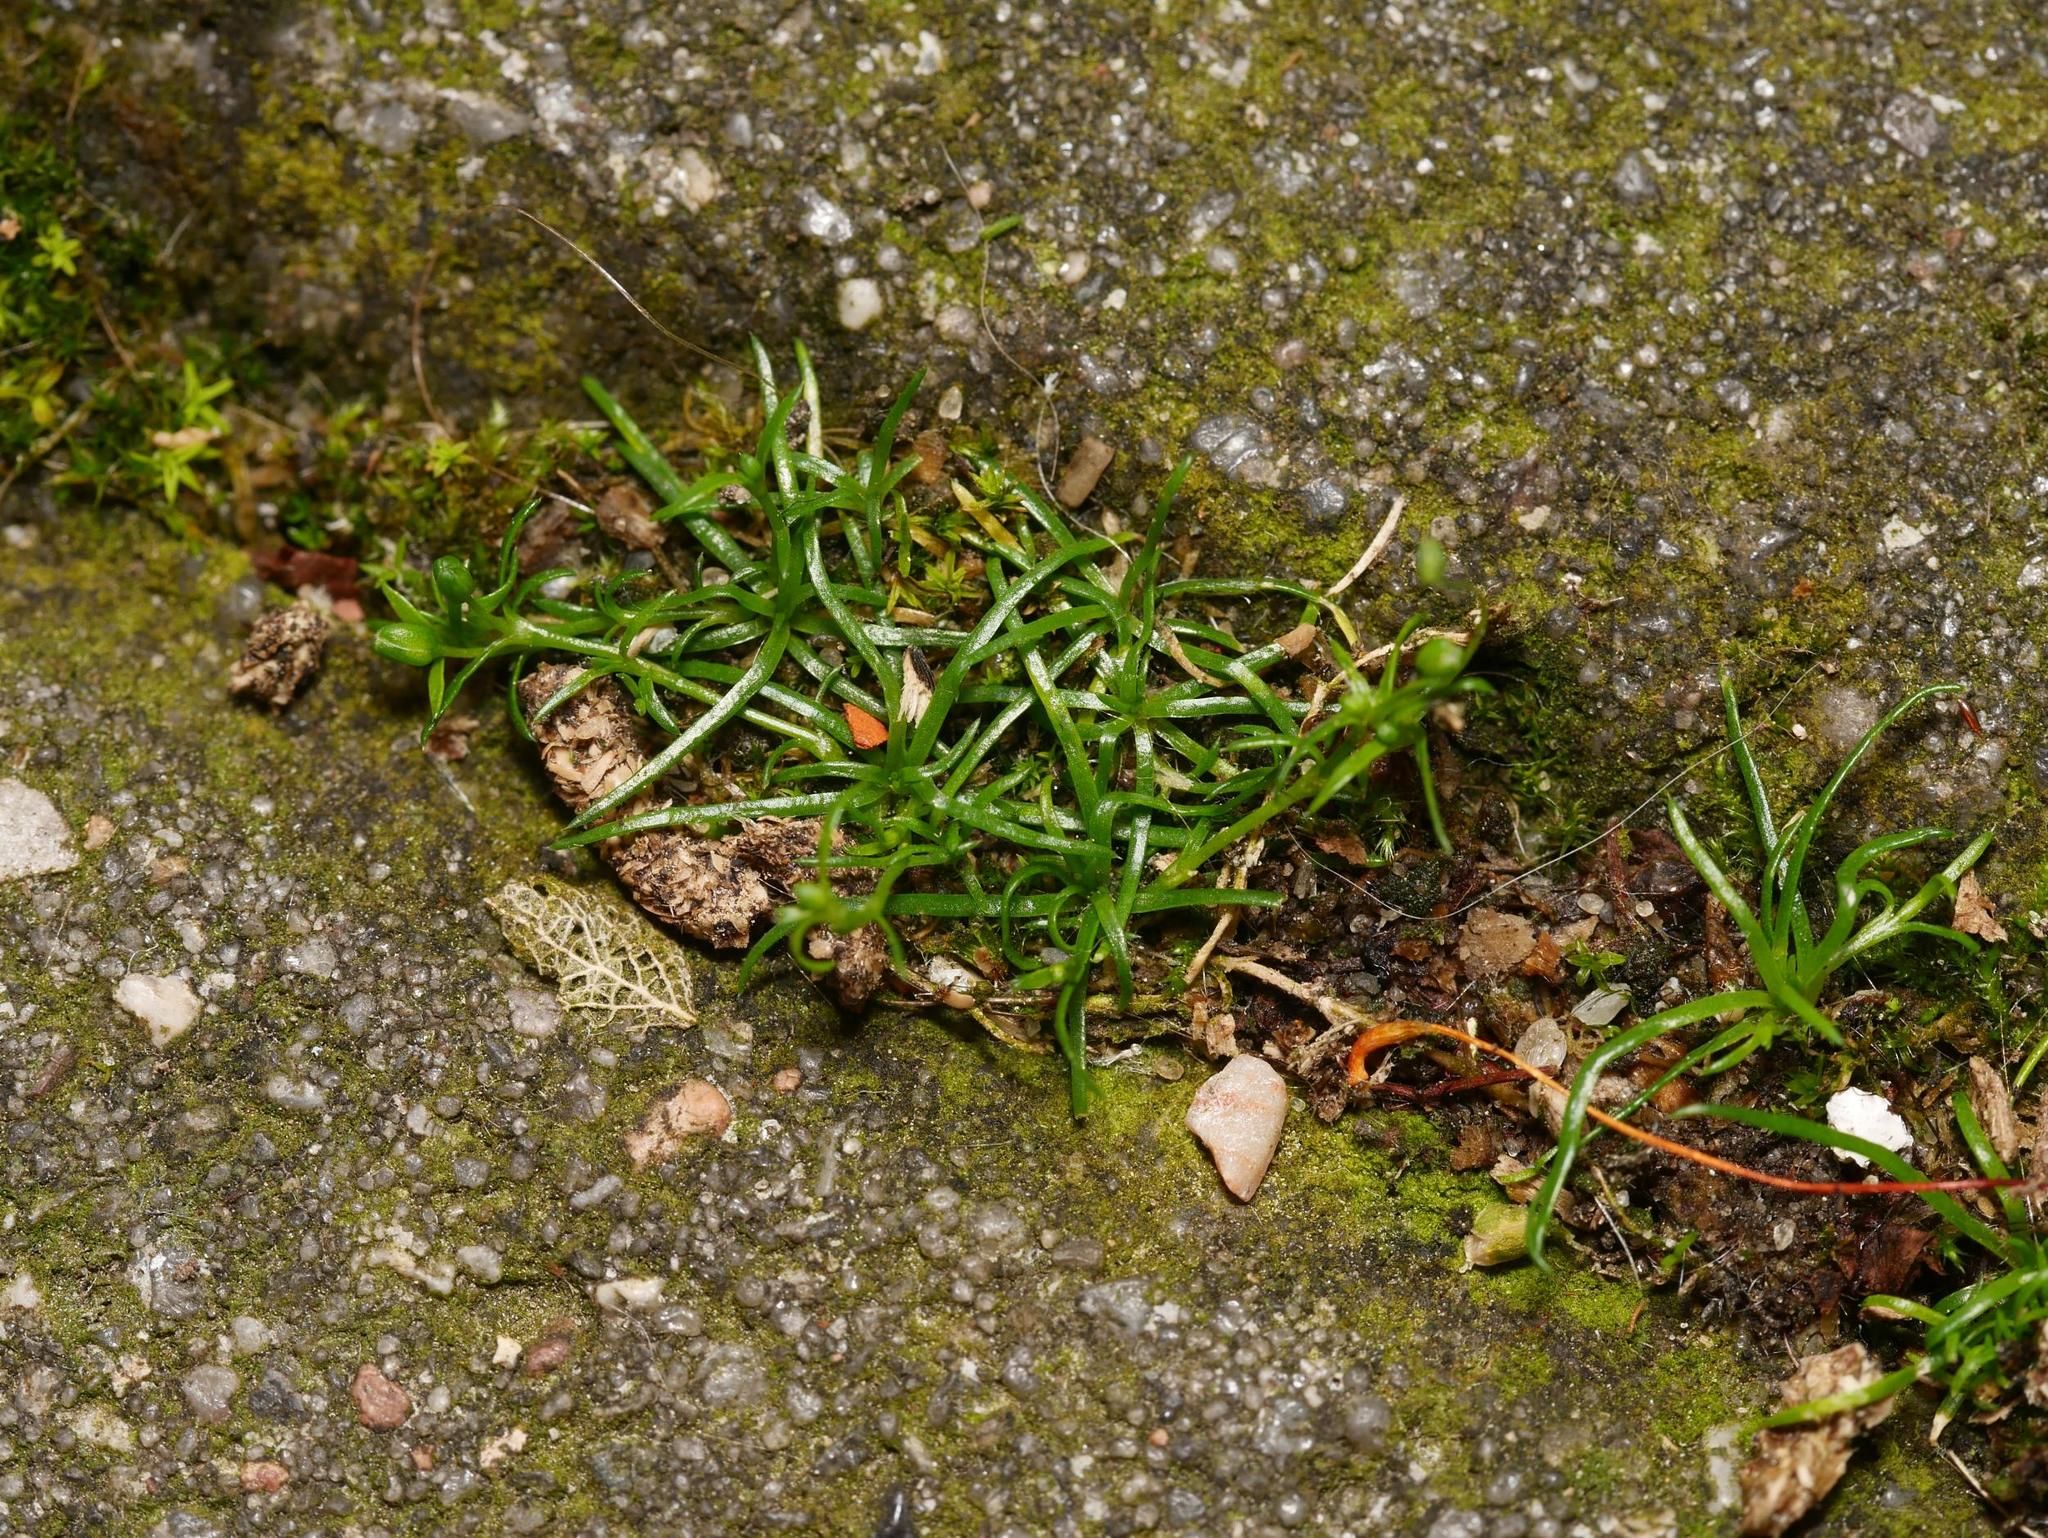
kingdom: Plantae
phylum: Tracheophyta
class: Magnoliopsida
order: Caryophyllales
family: Caryophyllaceae
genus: Sagina
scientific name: Sagina procumbens
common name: Procumbent pearlwort
